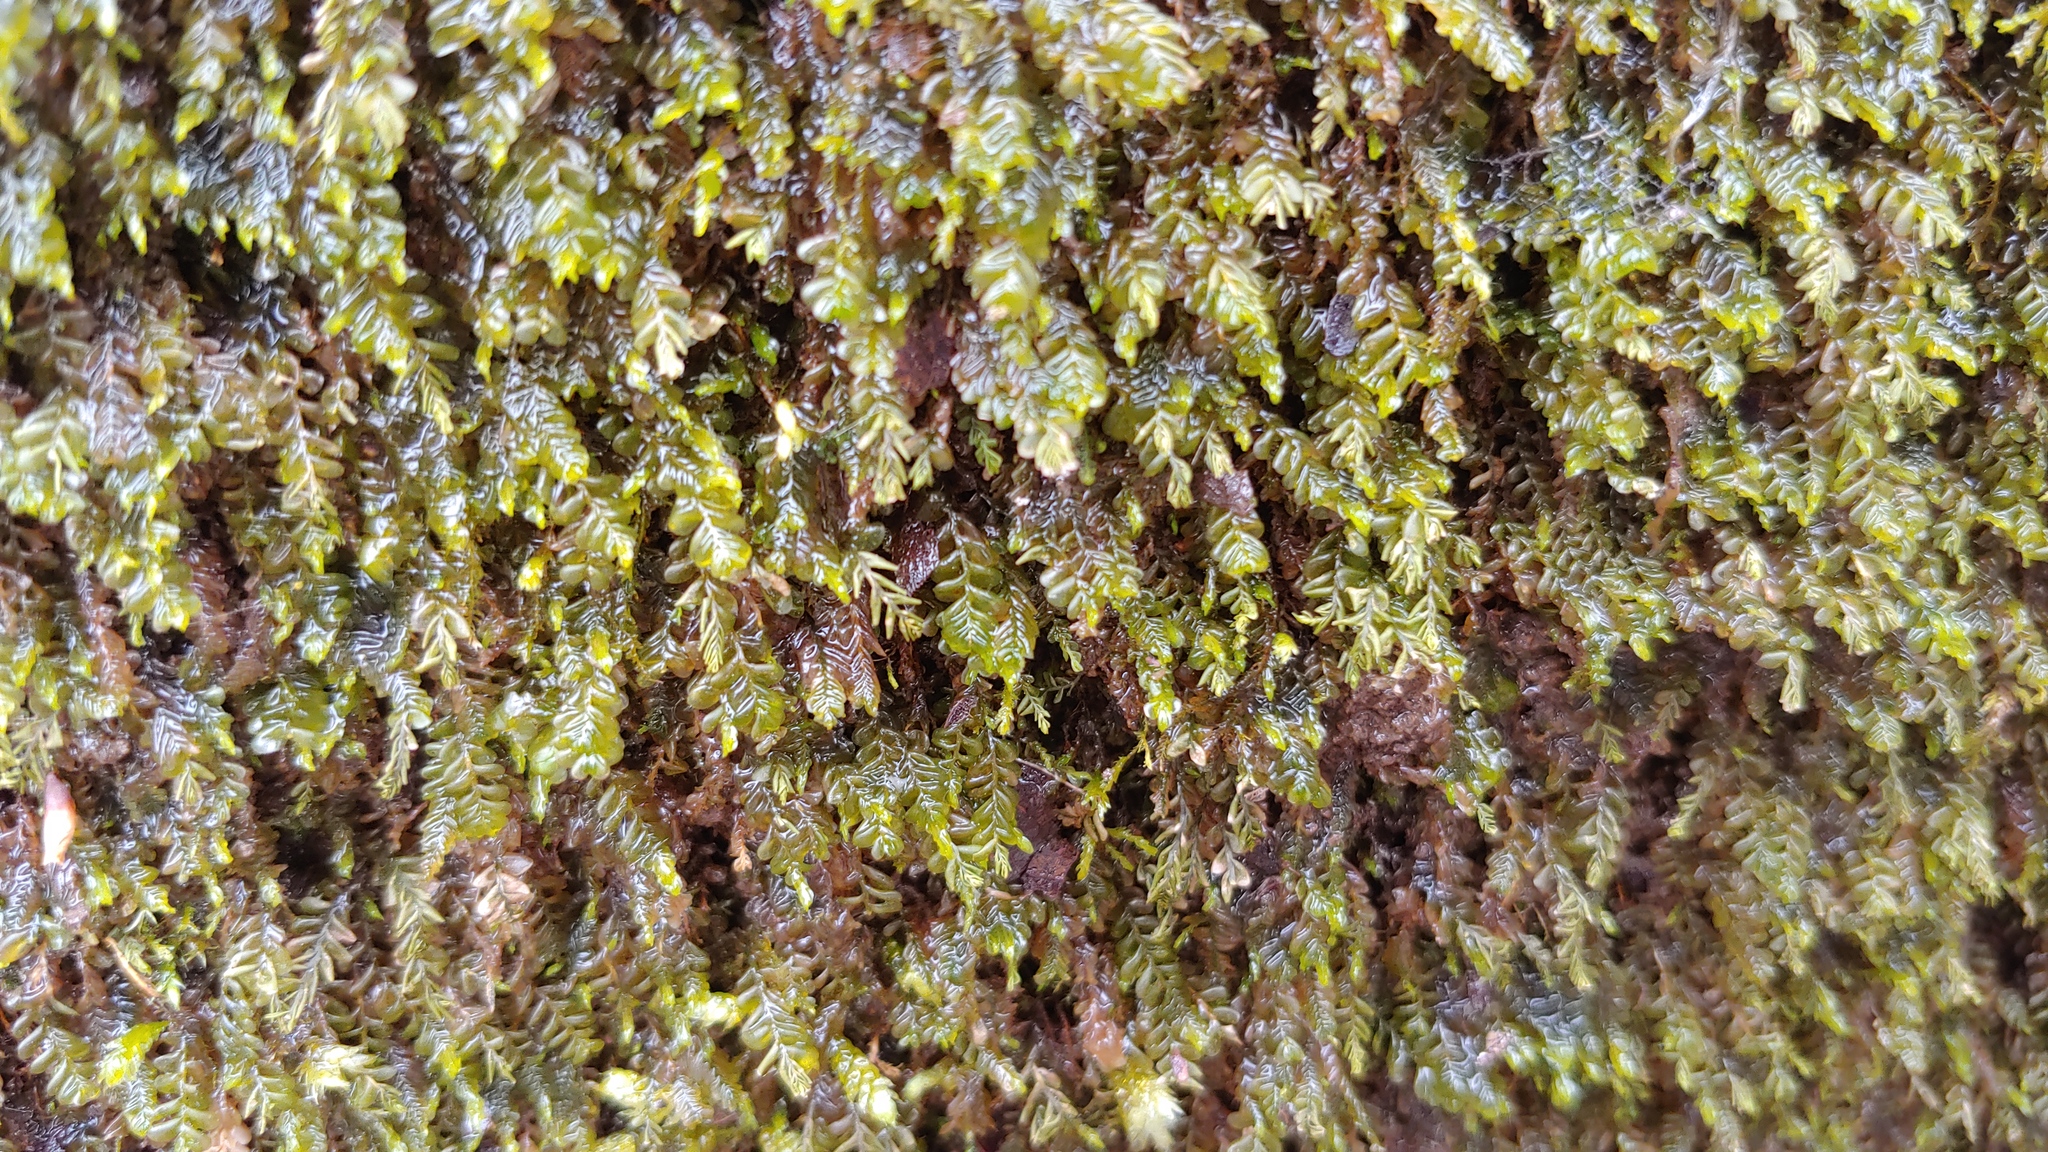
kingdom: Plantae
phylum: Marchantiophyta
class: Jungermanniopsida
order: Jungermanniales
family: Plagiochilaceae
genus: Plagiochila
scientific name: Plagiochila porelloides
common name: Lesser featherwort
